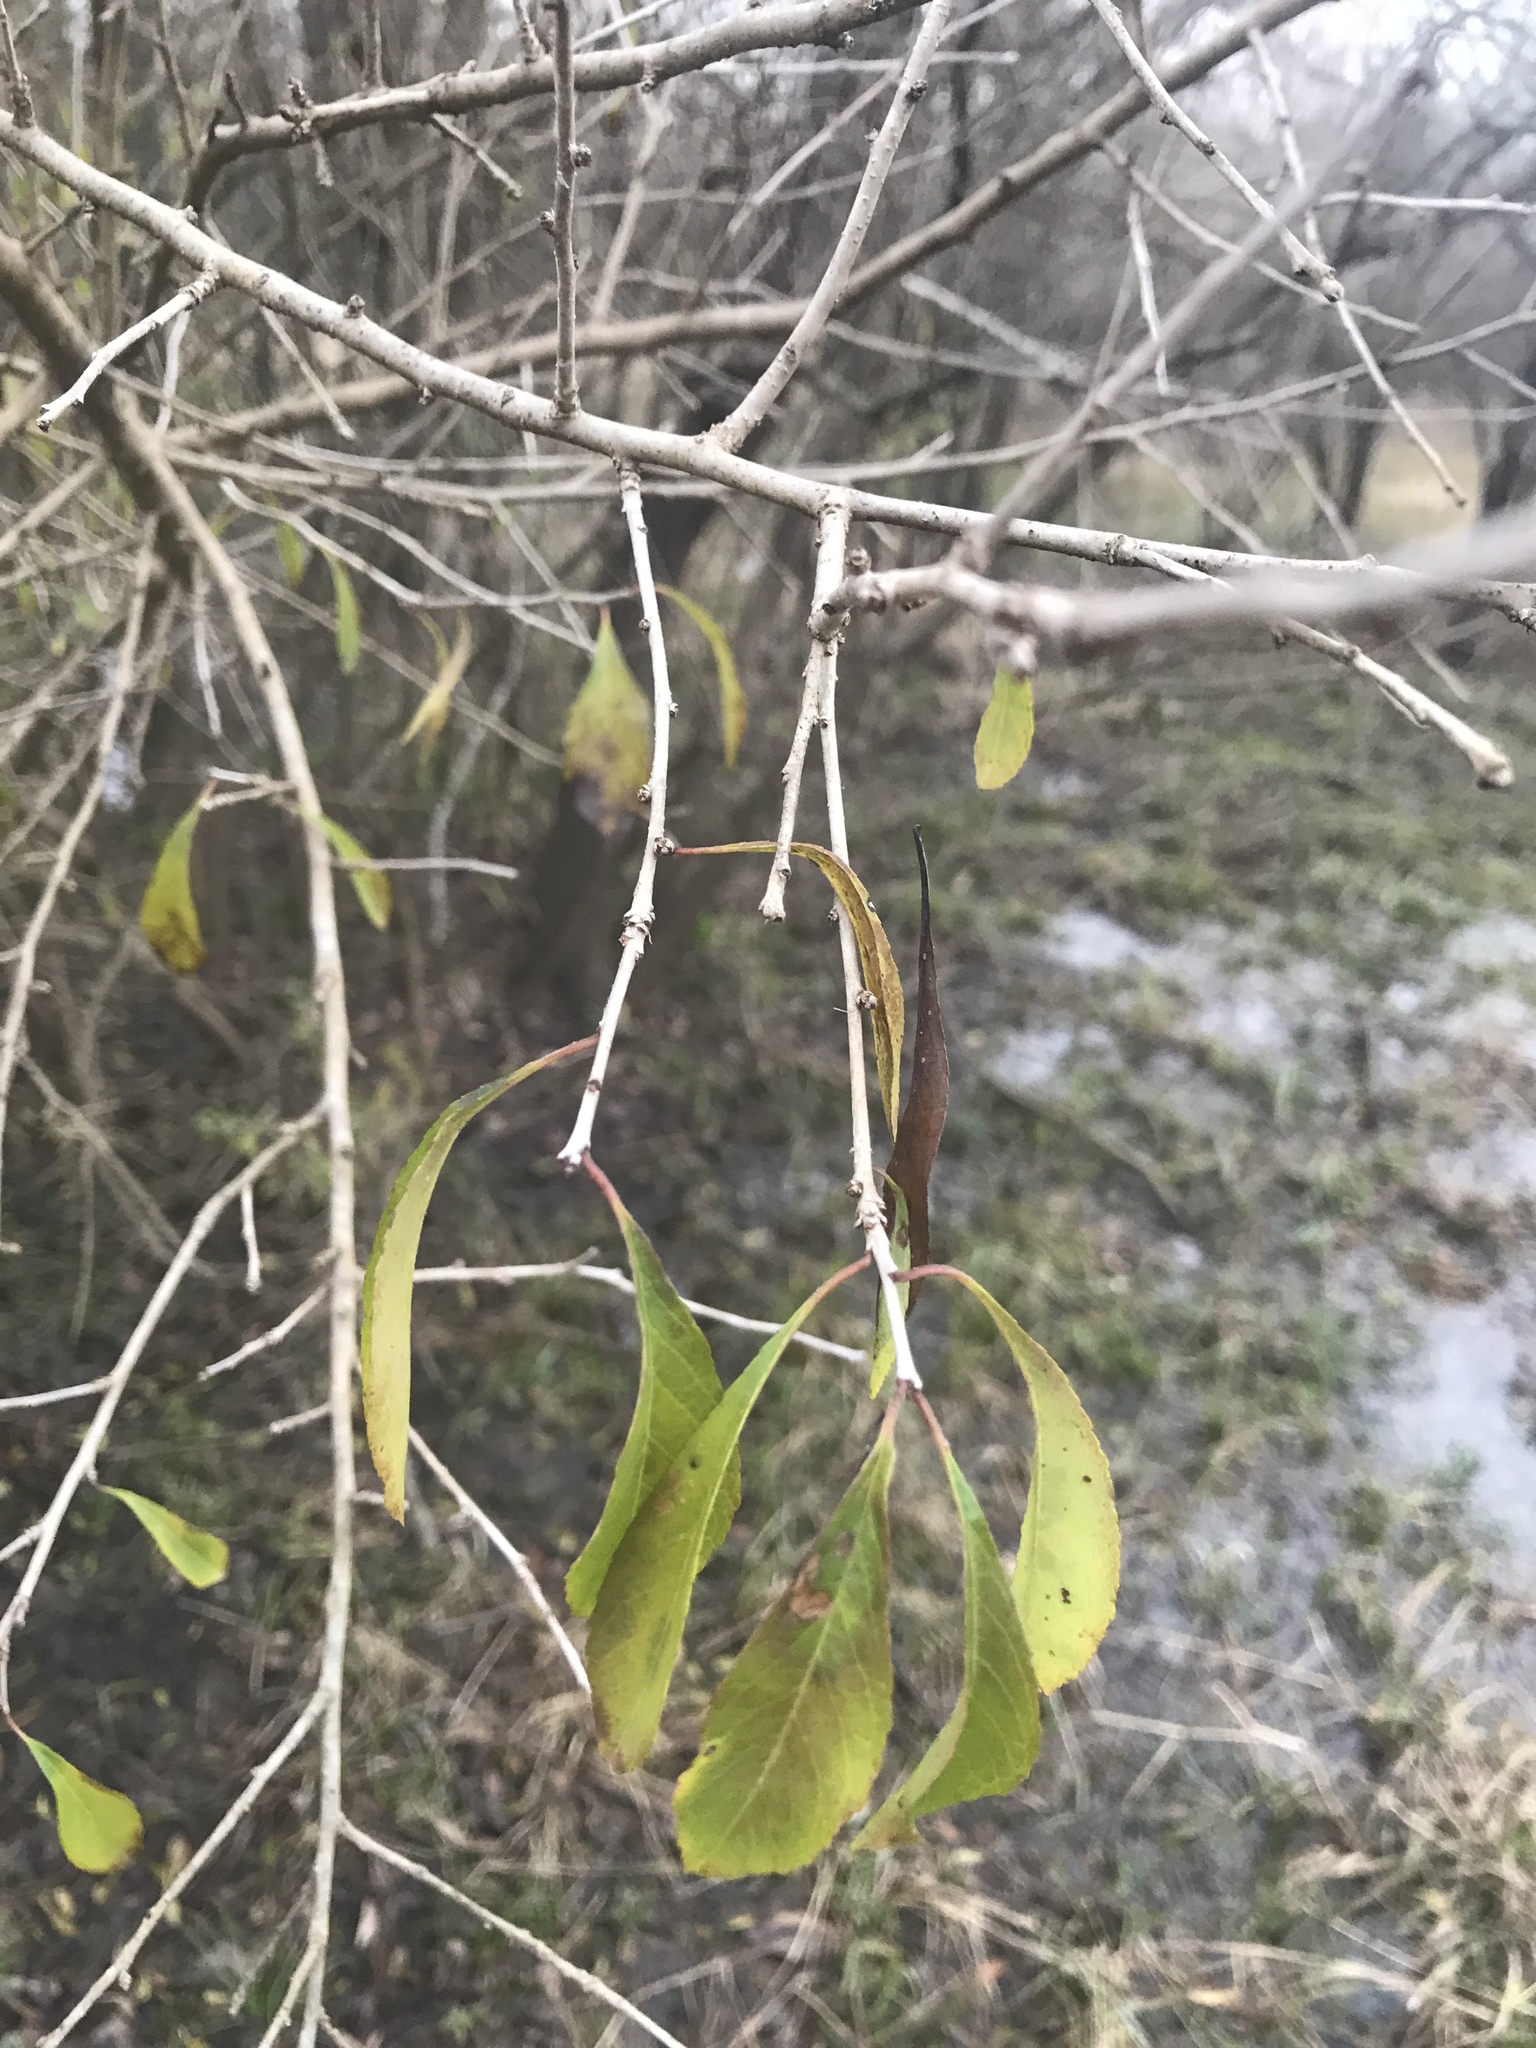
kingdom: Plantae
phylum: Tracheophyta
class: Magnoliopsida
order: Aquifoliales
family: Aquifoliaceae
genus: Ilex
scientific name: Ilex decidua
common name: Possum-haw
